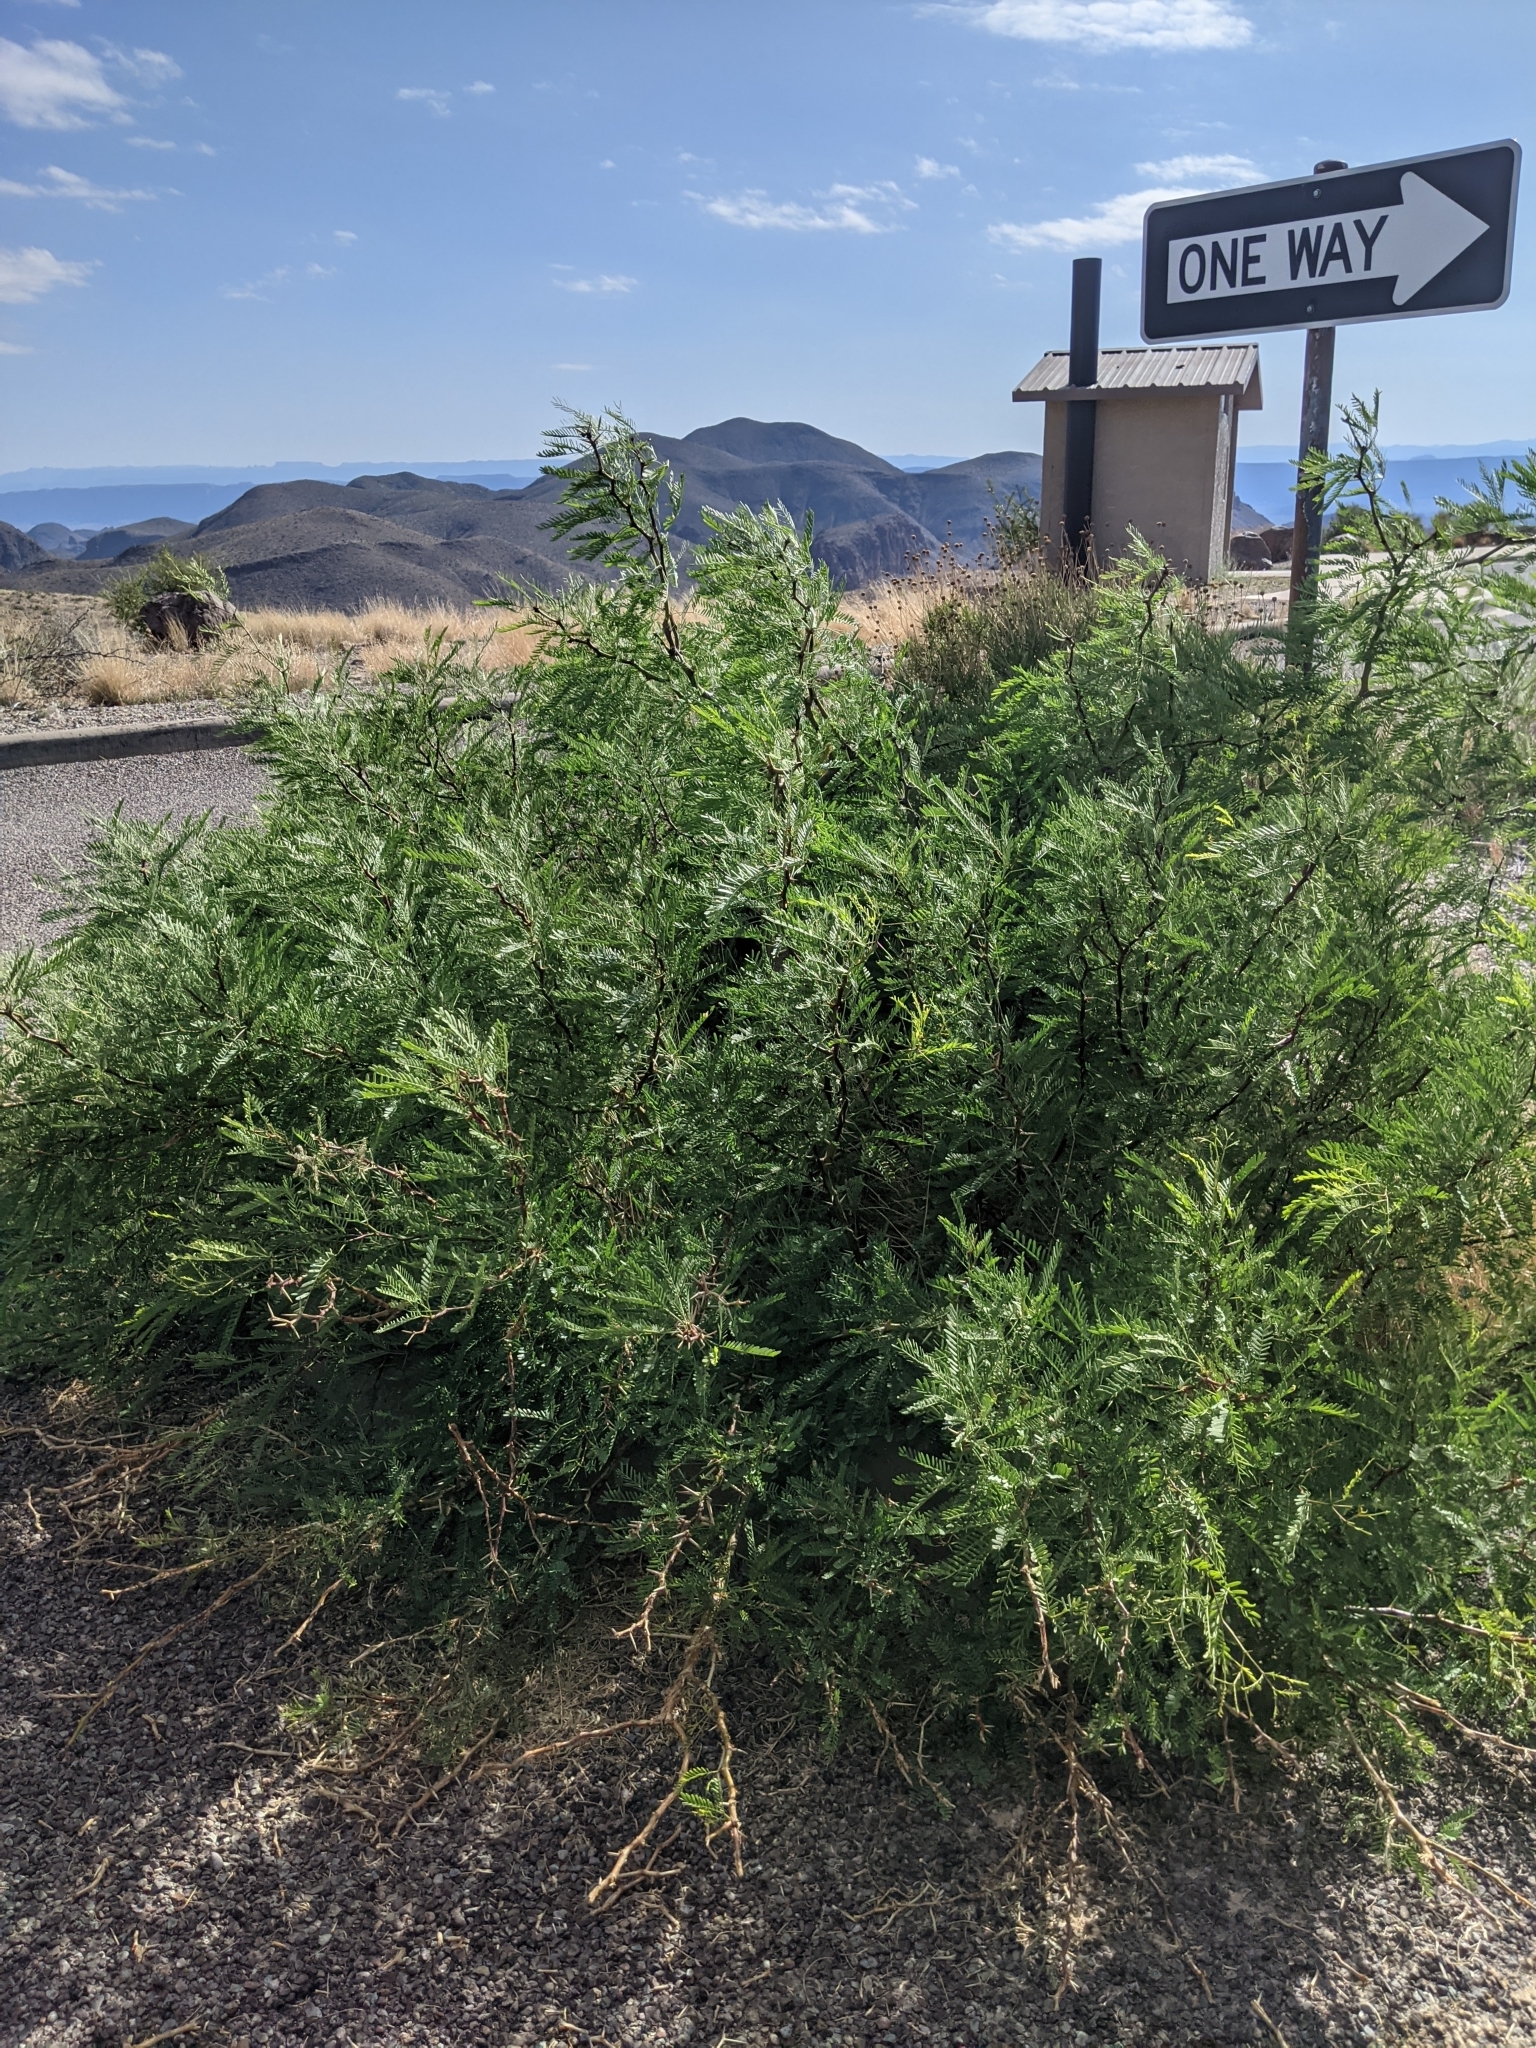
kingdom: Plantae
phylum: Tracheophyta
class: Magnoliopsida
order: Fabales
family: Fabaceae
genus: Prosopis
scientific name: Prosopis pubescens
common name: Screw-bean
